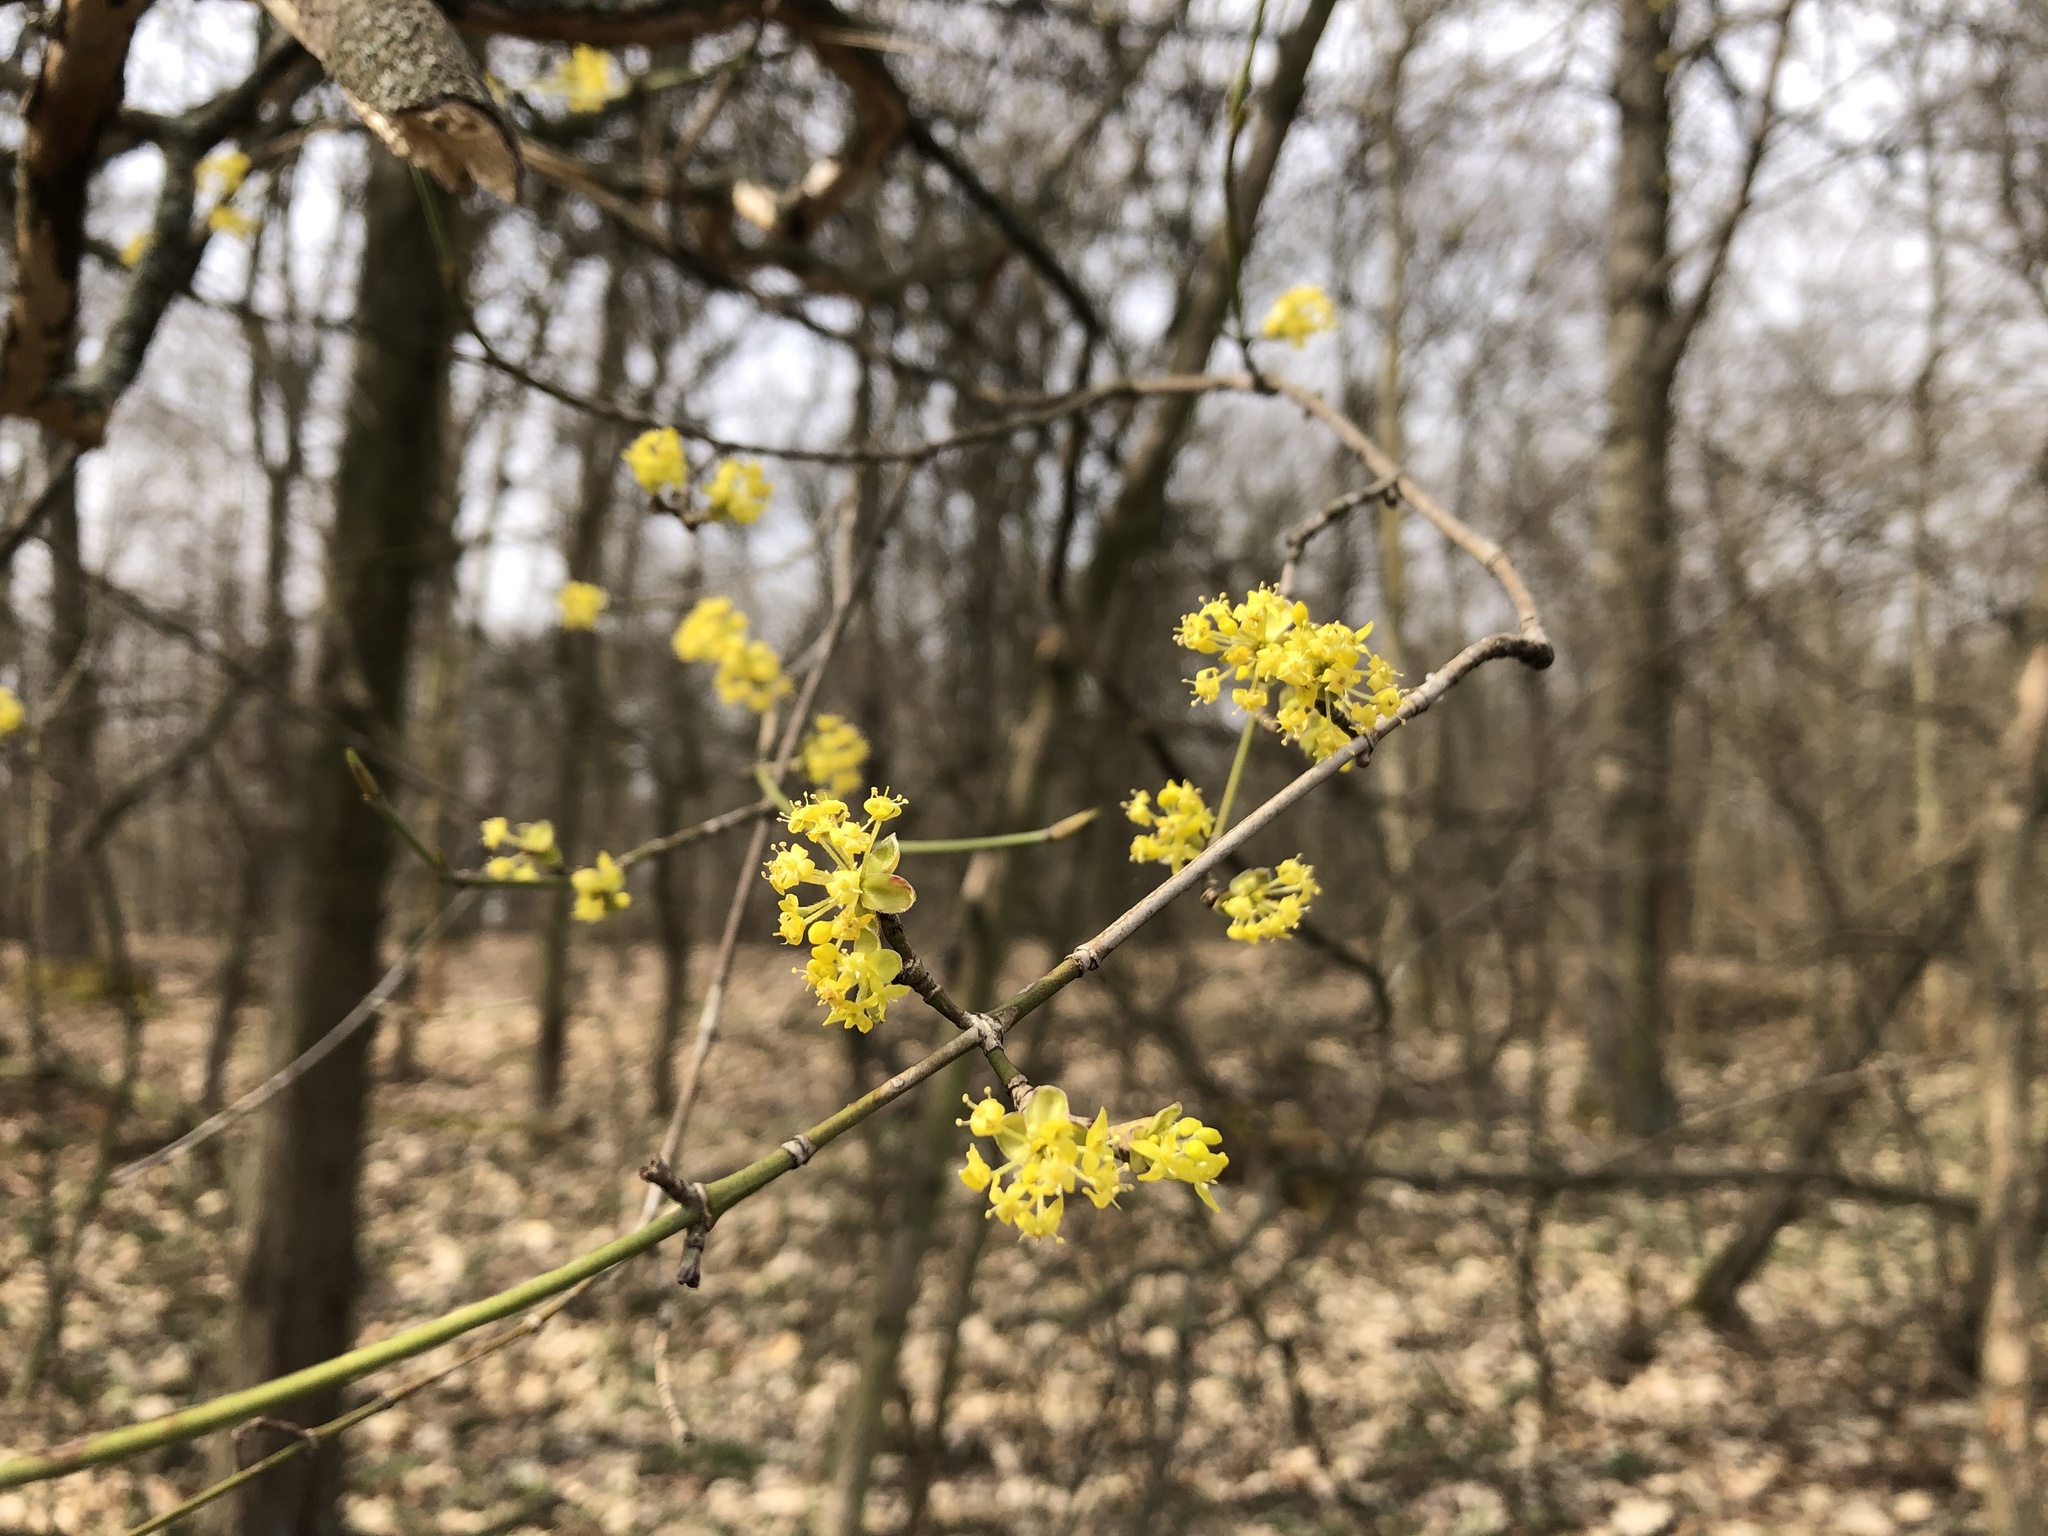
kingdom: Plantae
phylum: Tracheophyta
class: Magnoliopsida
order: Cornales
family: Cornaceae
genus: Cornus
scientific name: Cornus mas
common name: Cornelian-cherry
